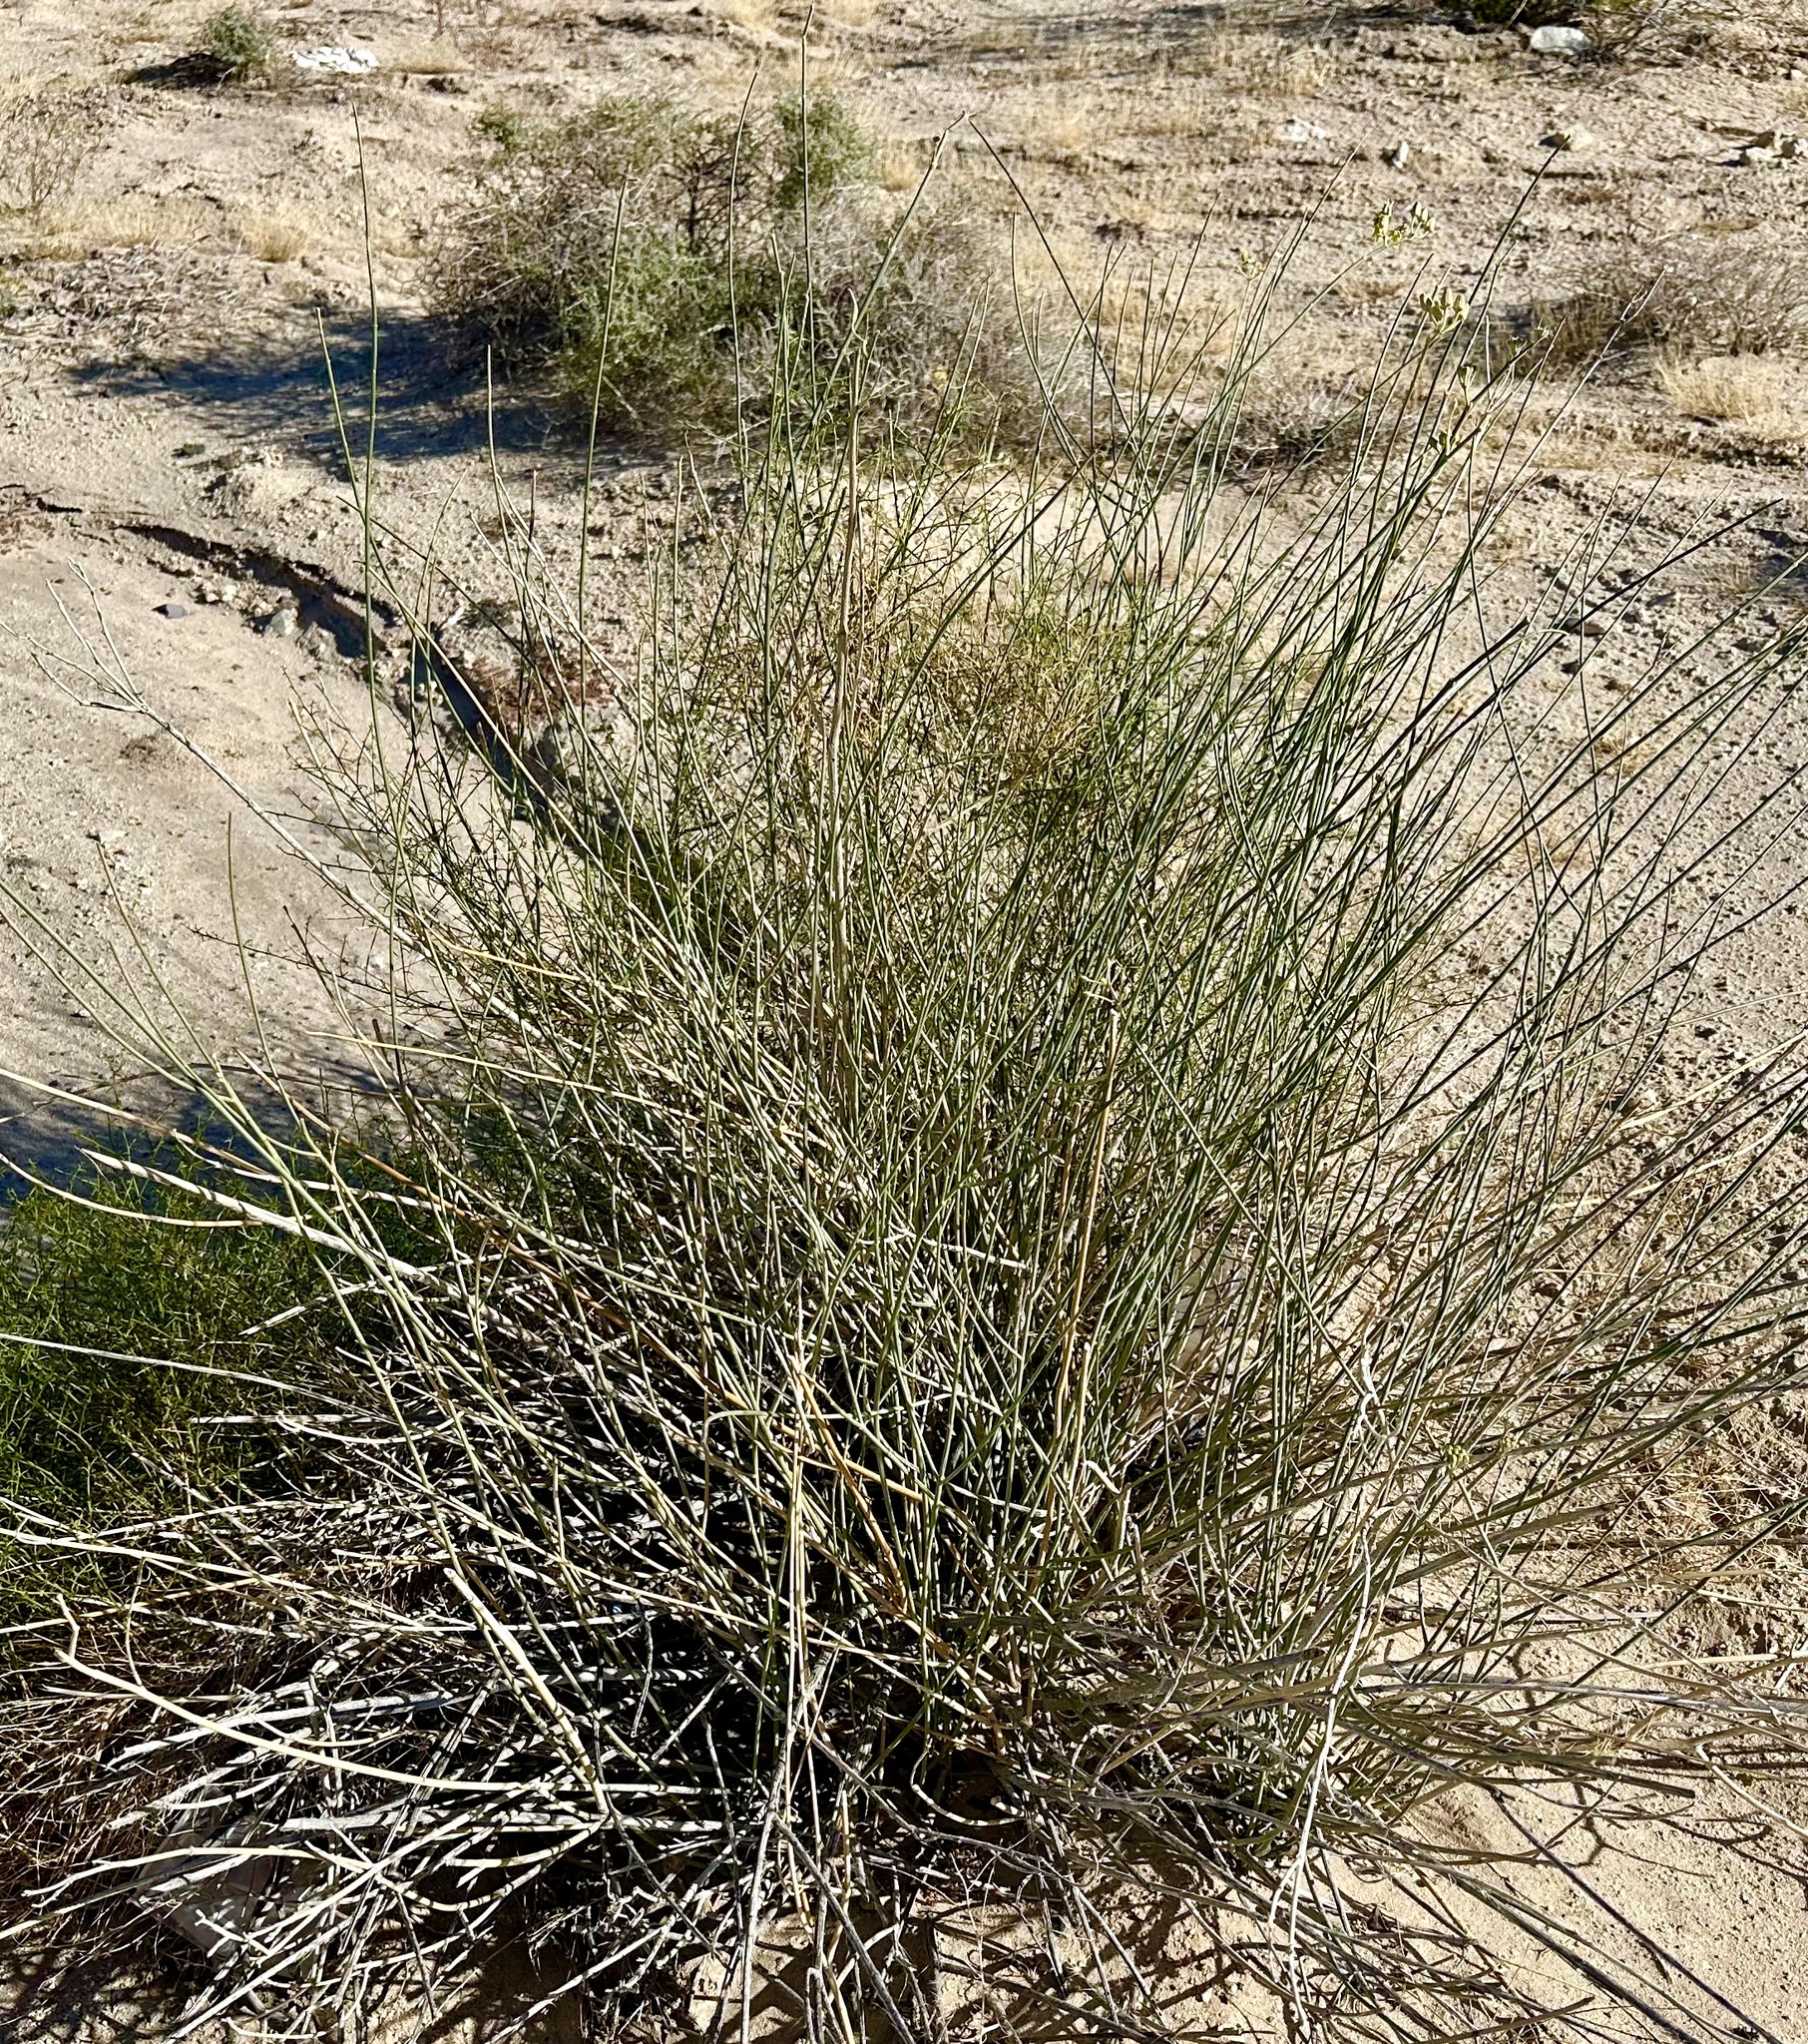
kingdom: Plantae
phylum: Tracheophyta
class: Magnoliopsida
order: Gentianales
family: Apocynaceae
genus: Asclepias
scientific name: Asclepias subulata
